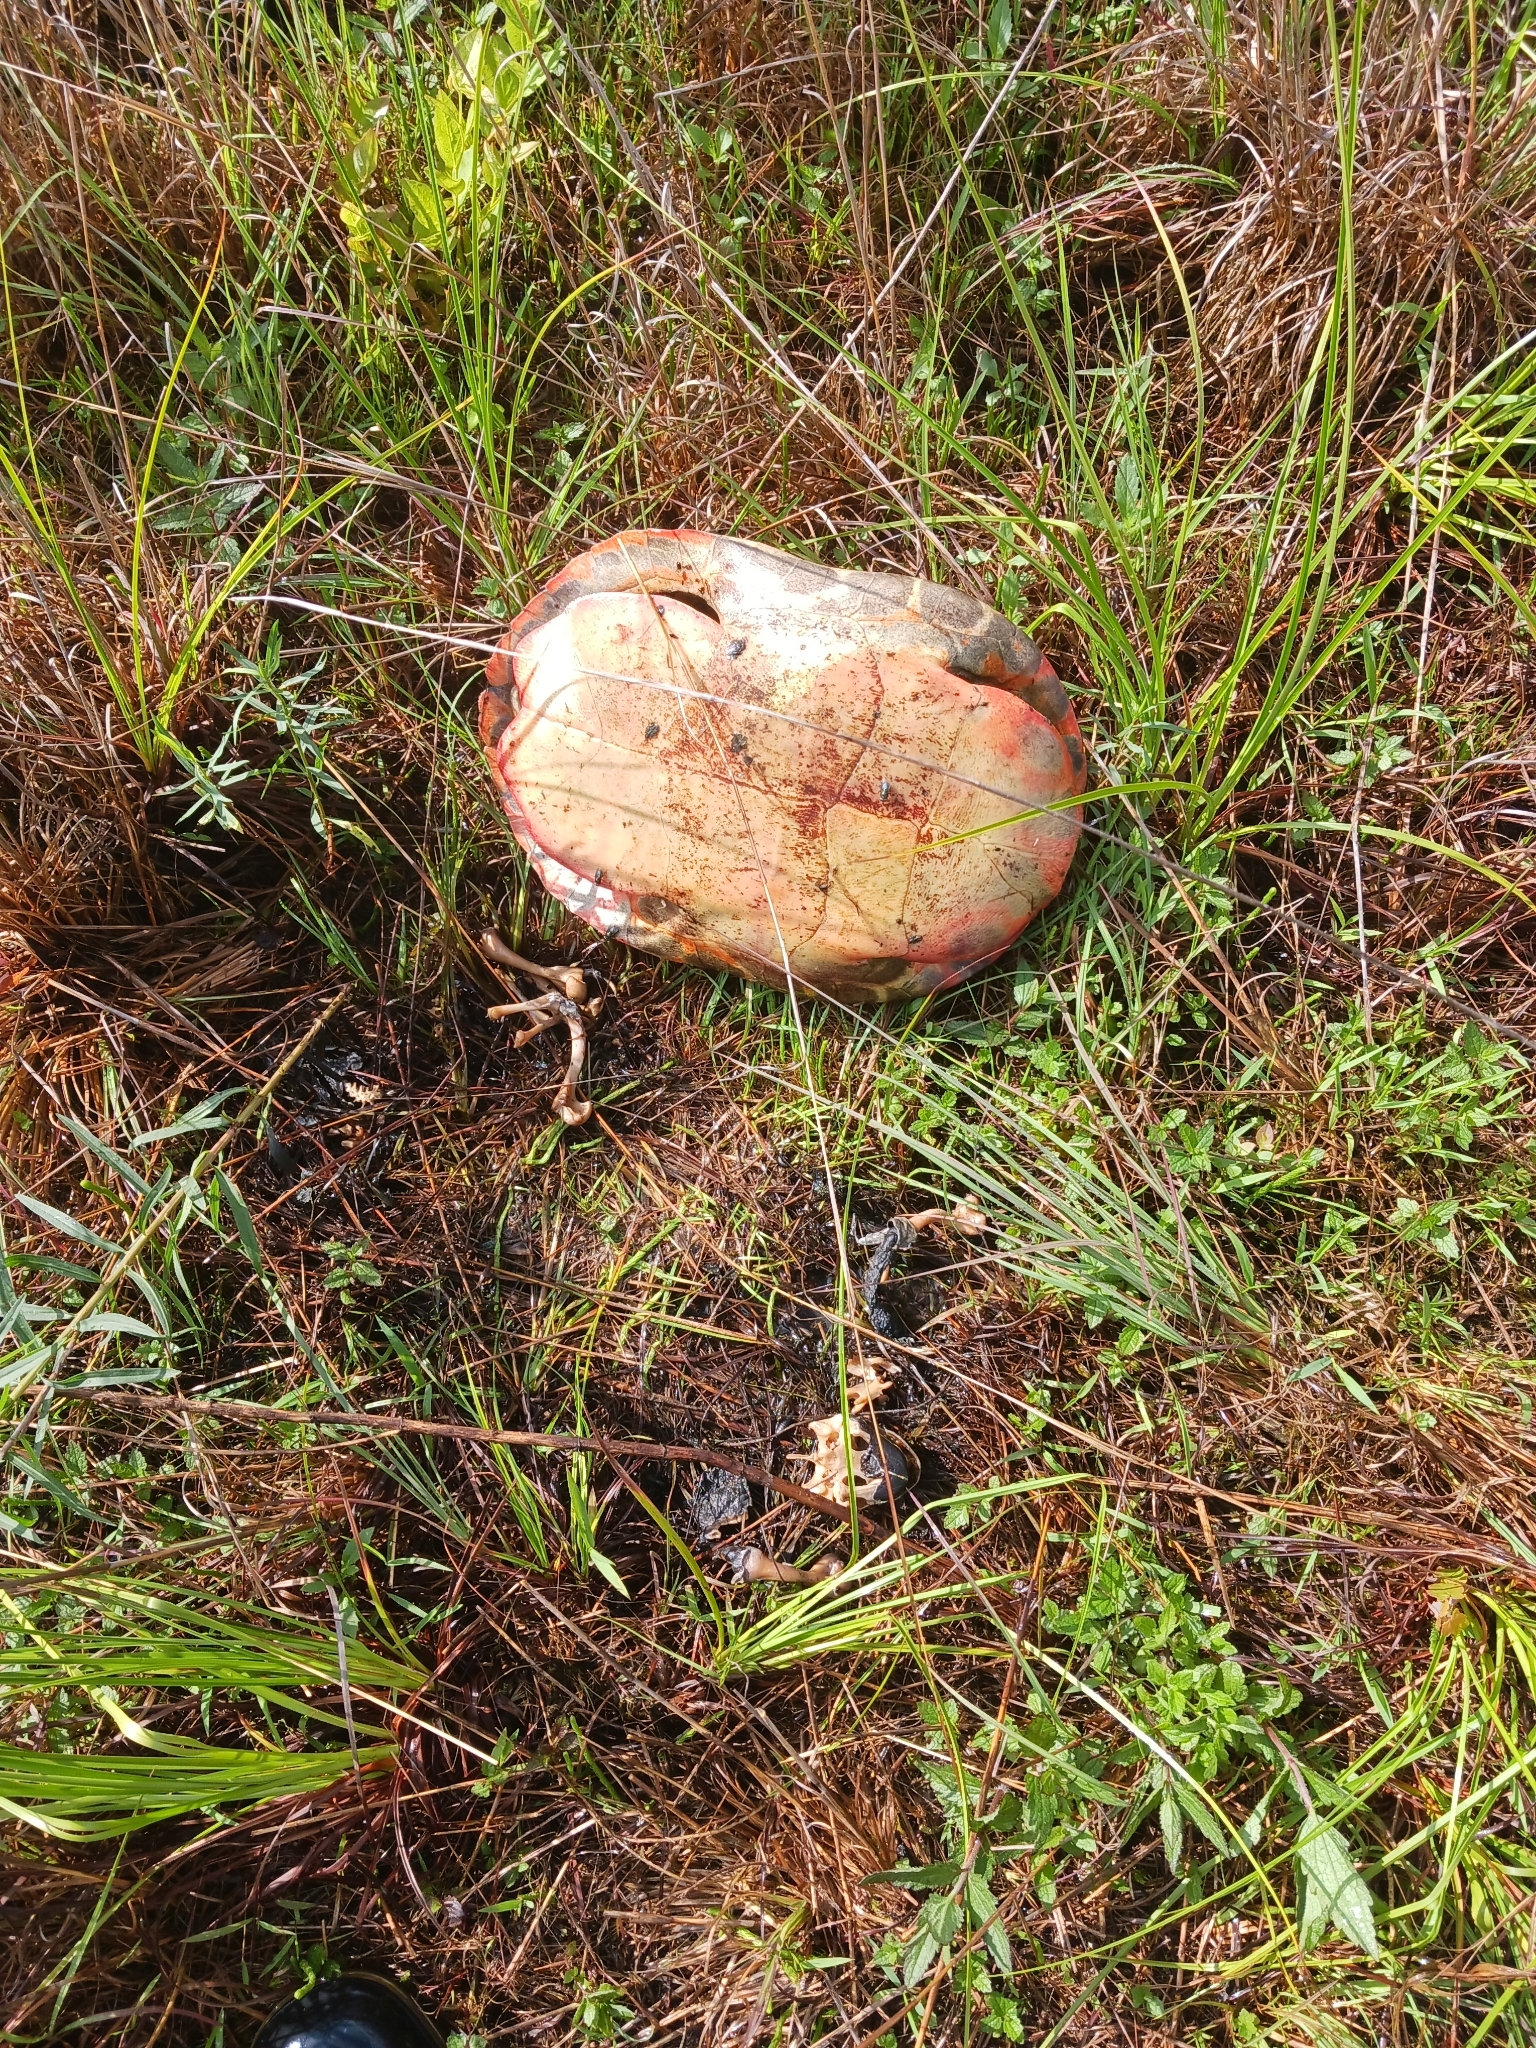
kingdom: Animalia
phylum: Chordata
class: Testudines
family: Emydidae
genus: Pseudemys
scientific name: Pseudemys rubriventris
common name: American red-bellied turtle
